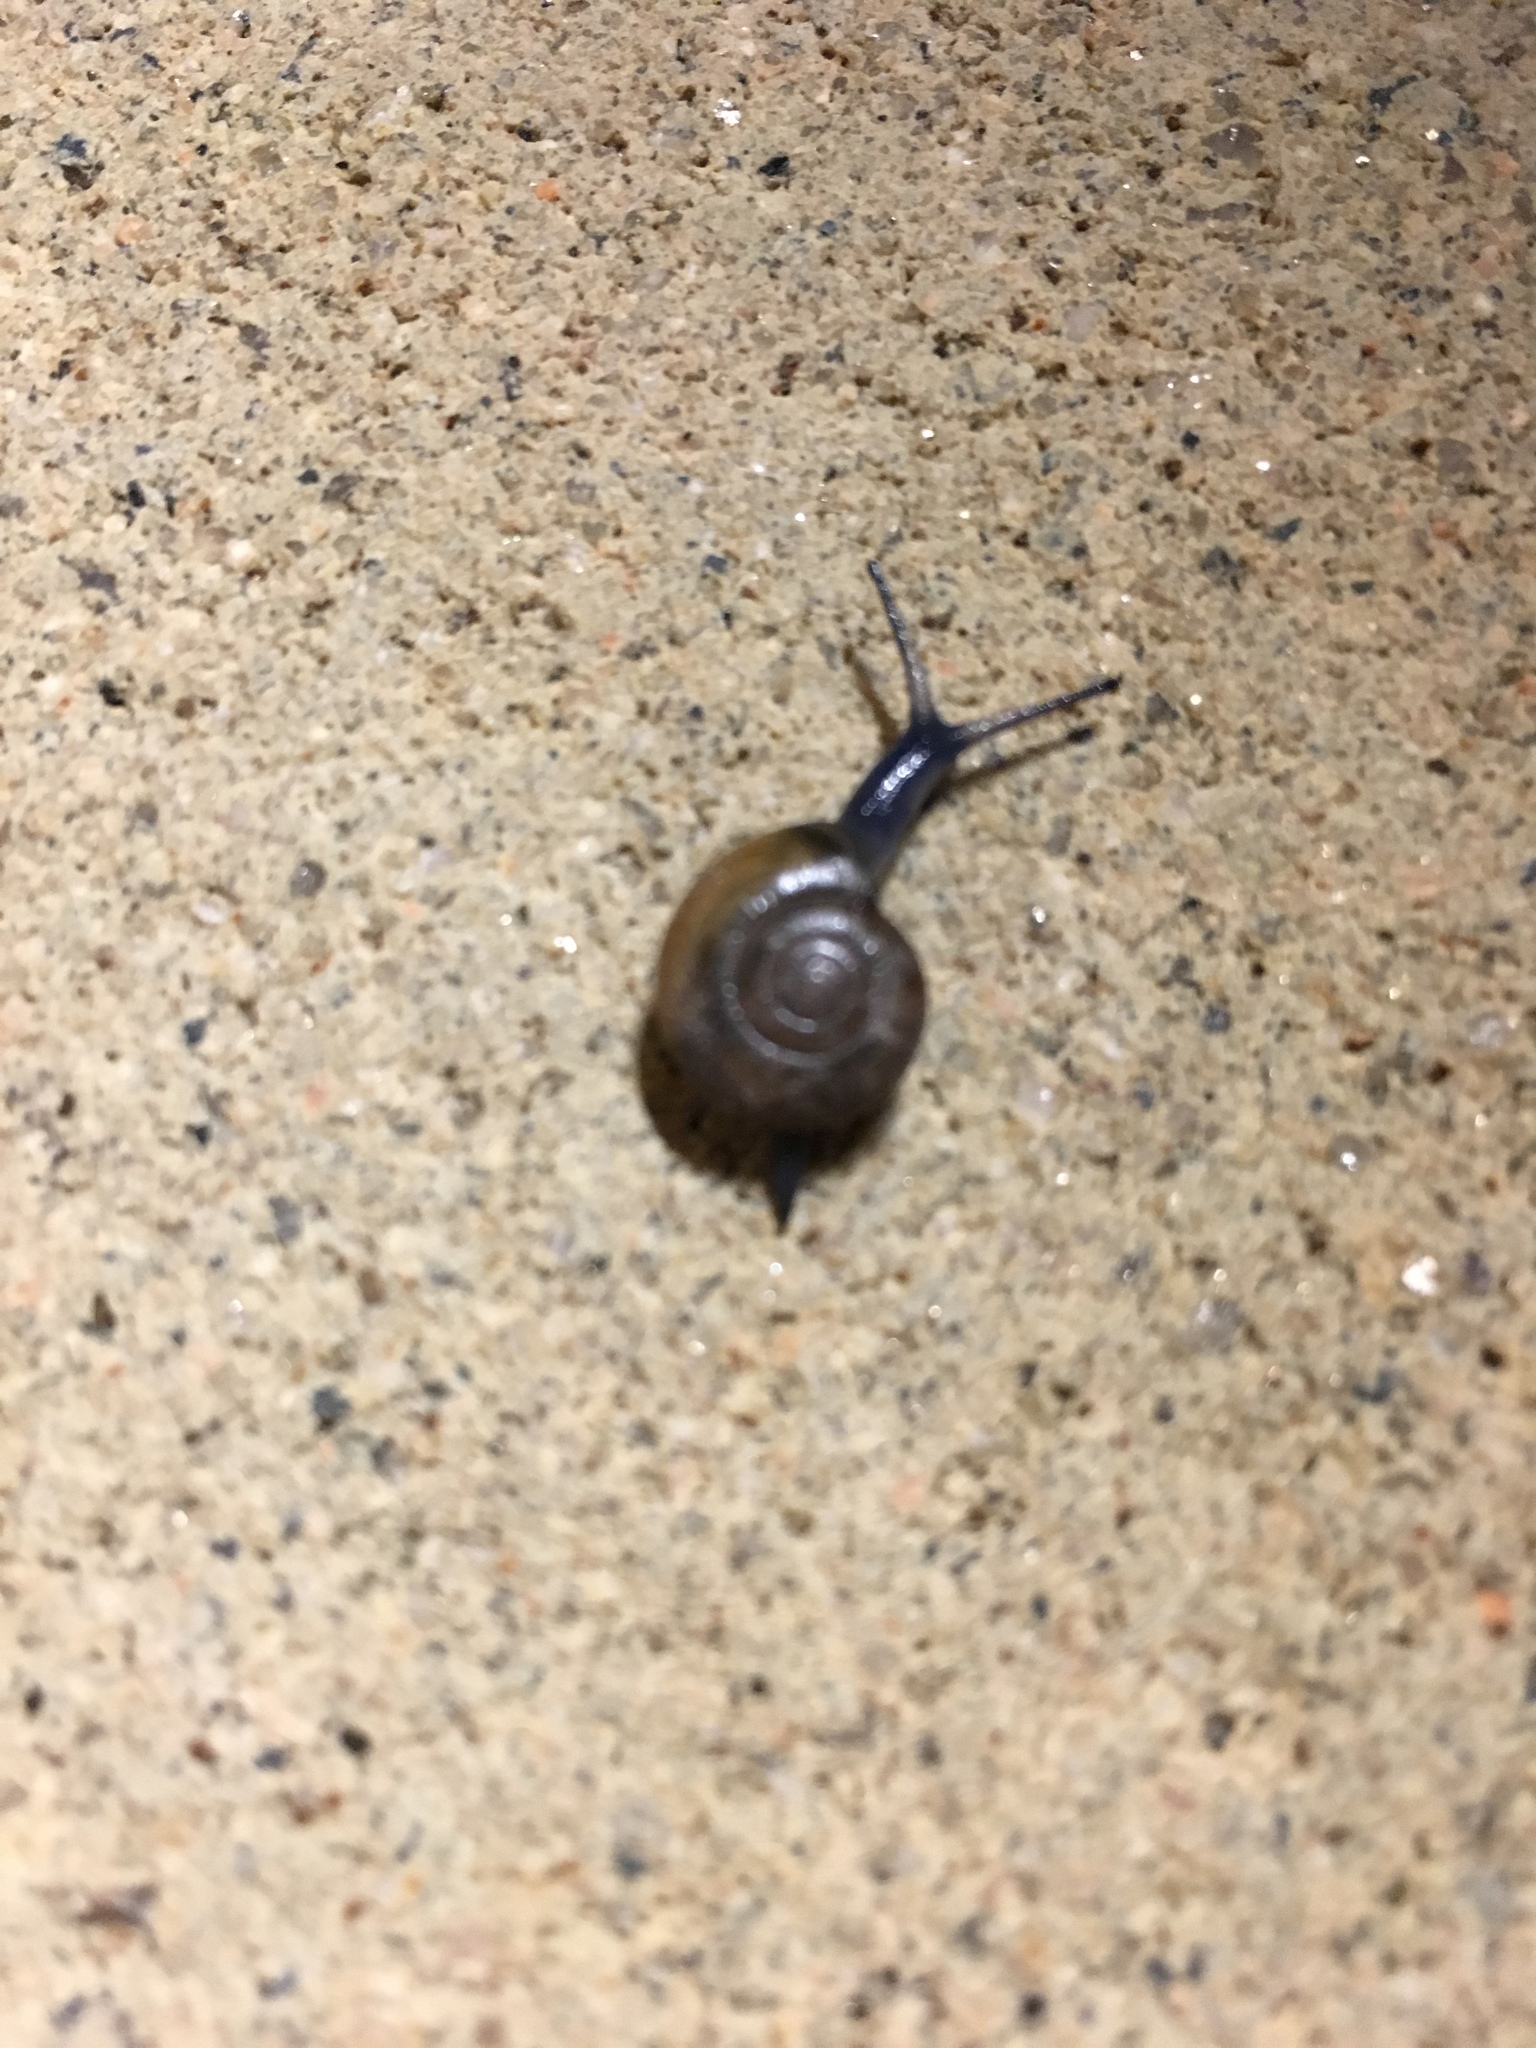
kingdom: Animalia
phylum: Mollusca
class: Gastropoda
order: Stylommatophora
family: Oxychilidae
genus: Oxychilus
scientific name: Oxychilus
